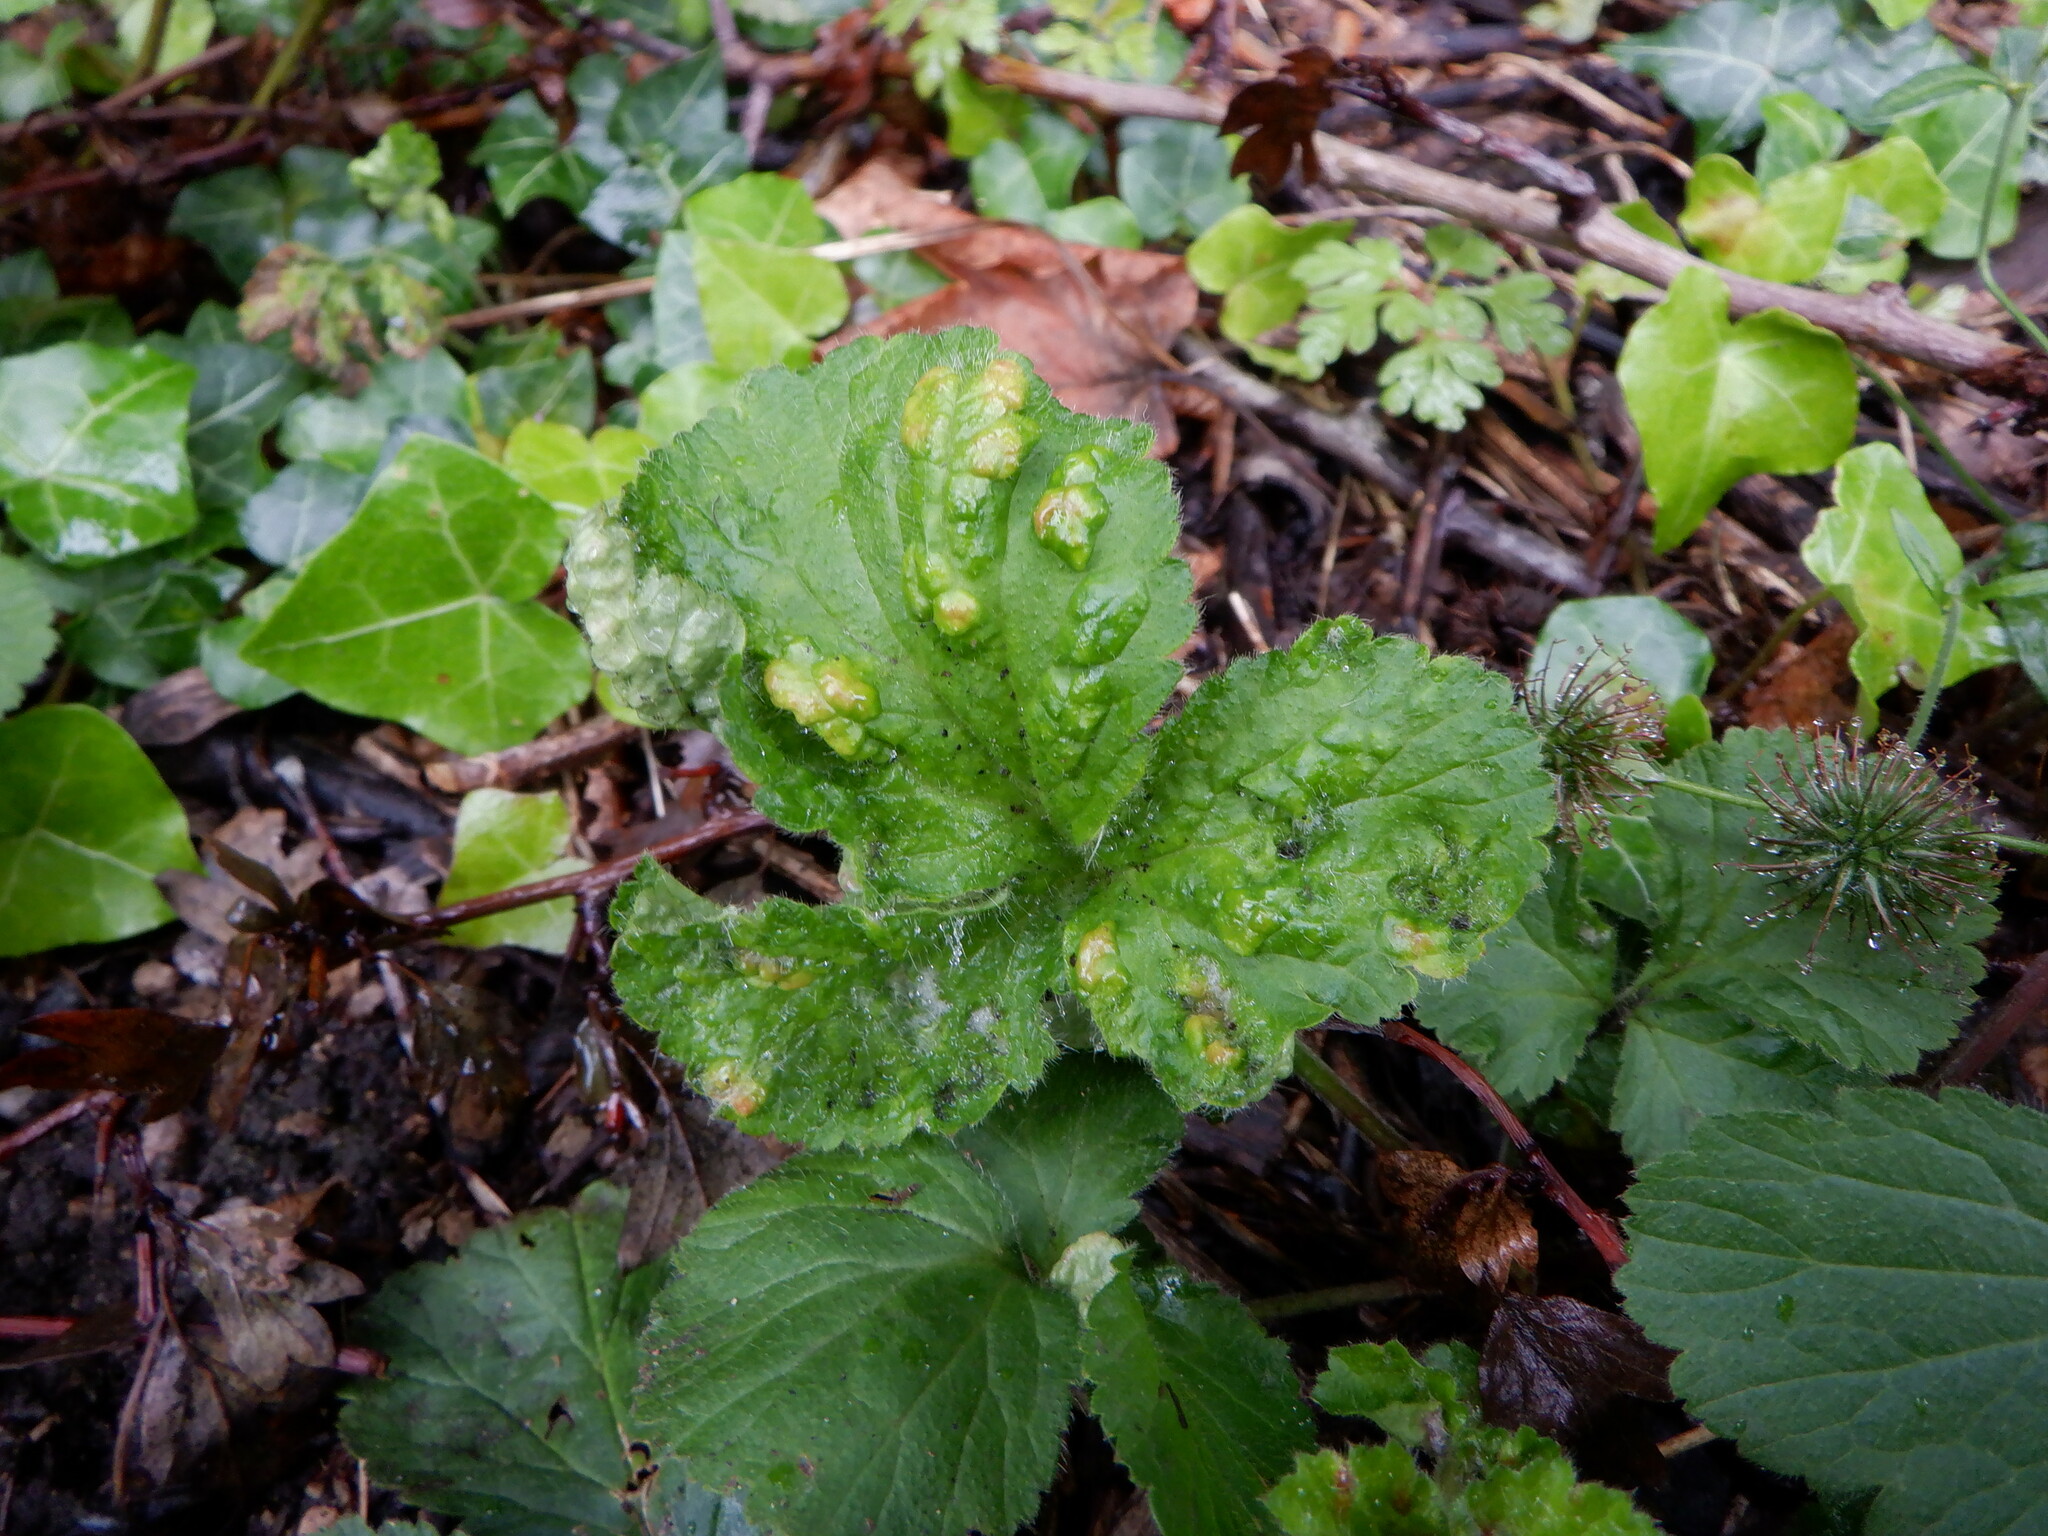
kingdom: Animalia
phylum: Arthropoda
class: Arachnida
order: Trombidiformes
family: Eriophyidae
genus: Cecidophyes
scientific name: Cecidophyes nudus
